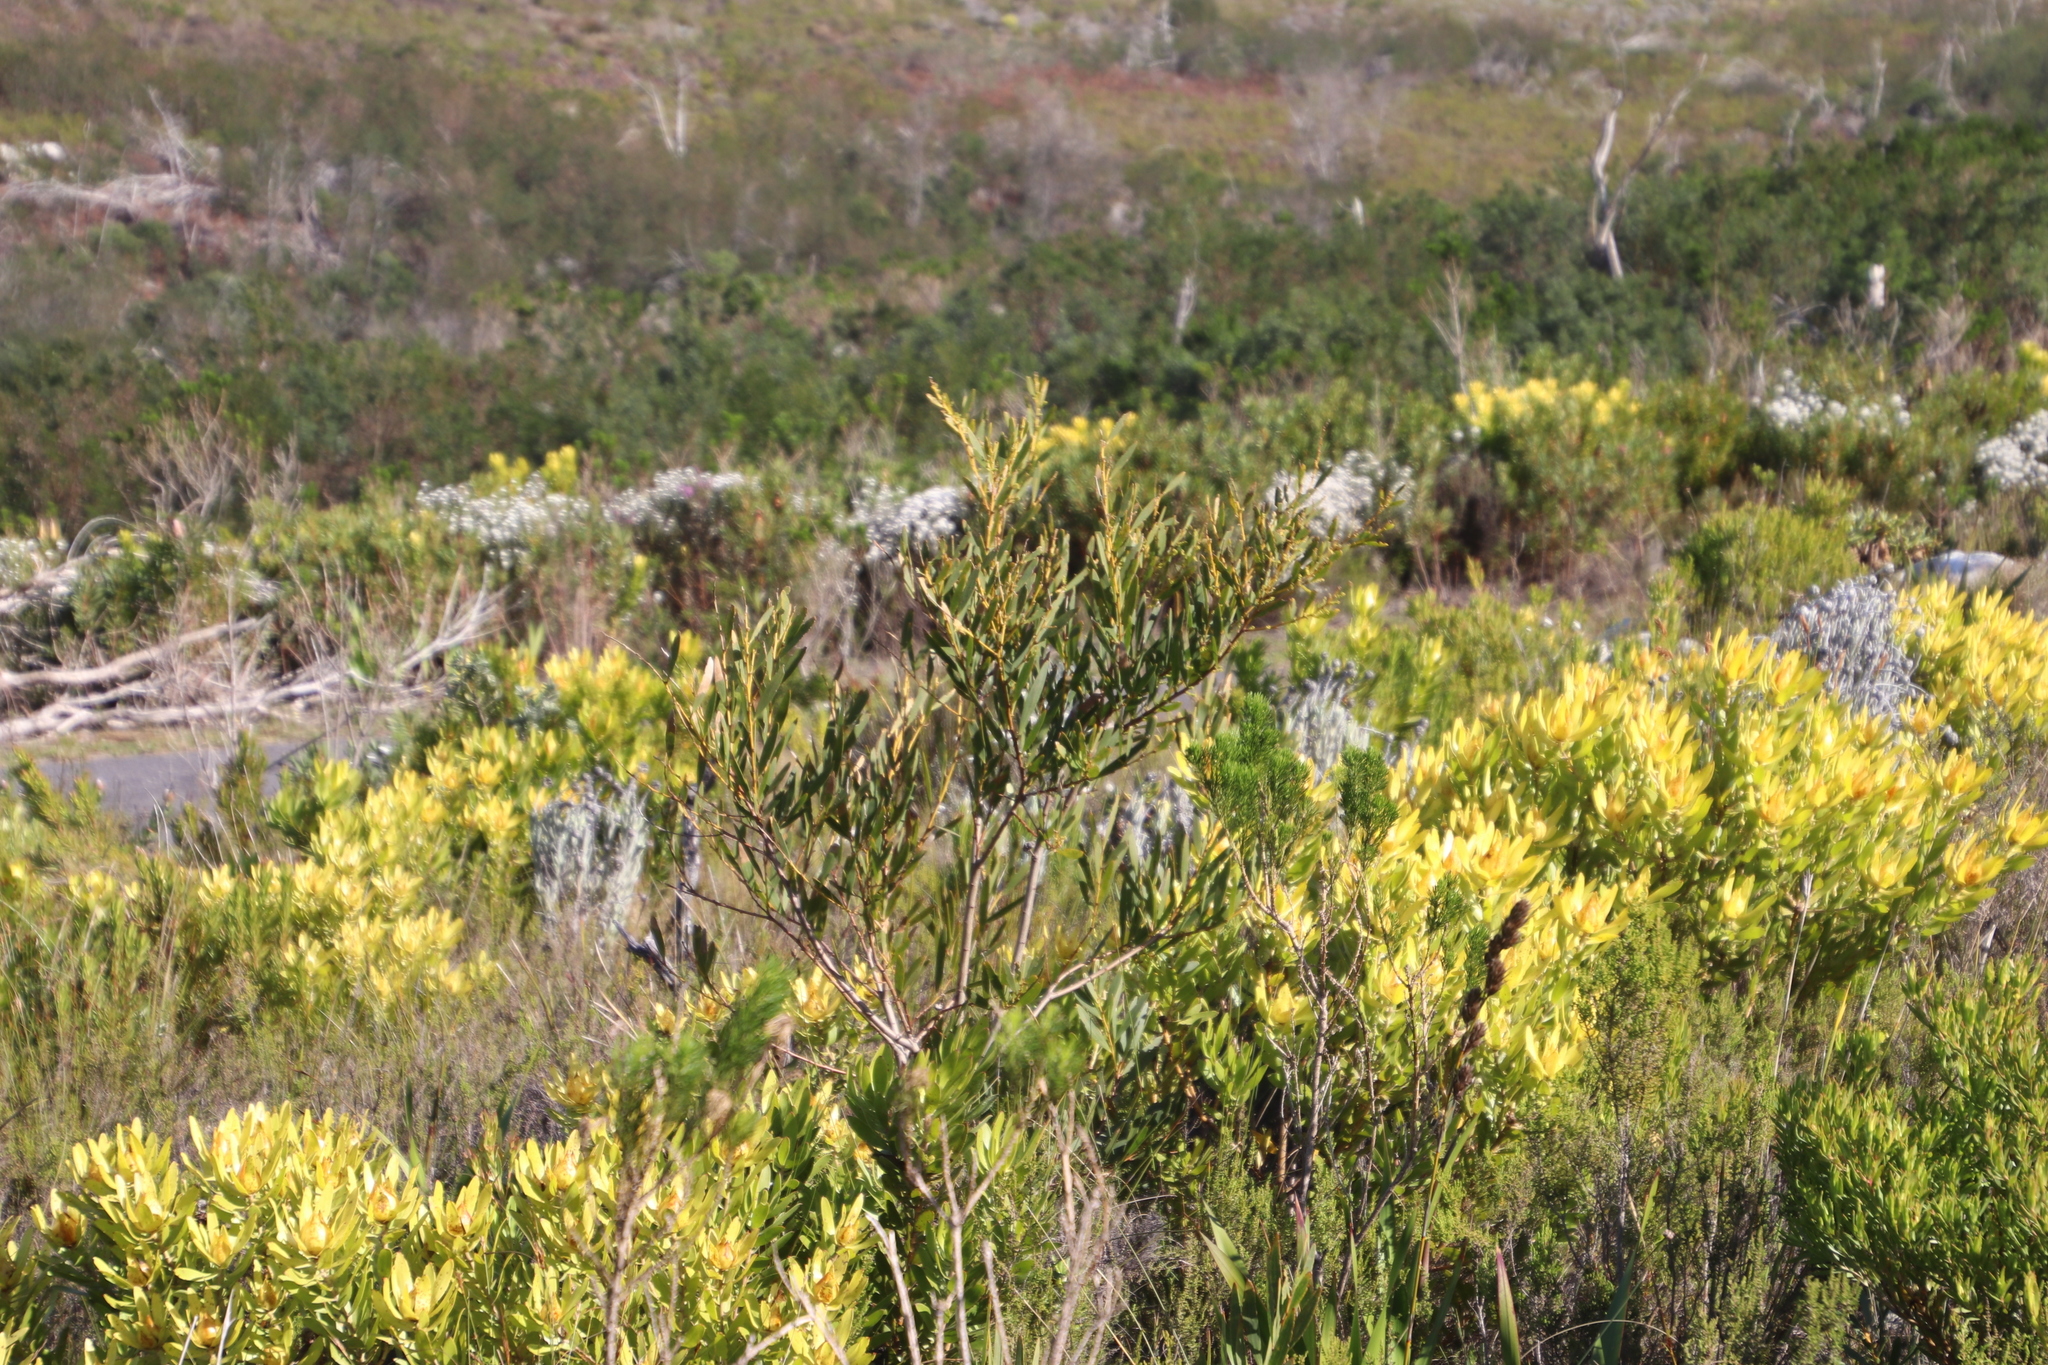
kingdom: Plantae
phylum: Tracheophyta
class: Magnoliopsida
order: Fabales
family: Fabaceae
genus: Acacia
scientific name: Acacia longifolia
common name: Sydney golden wattle
